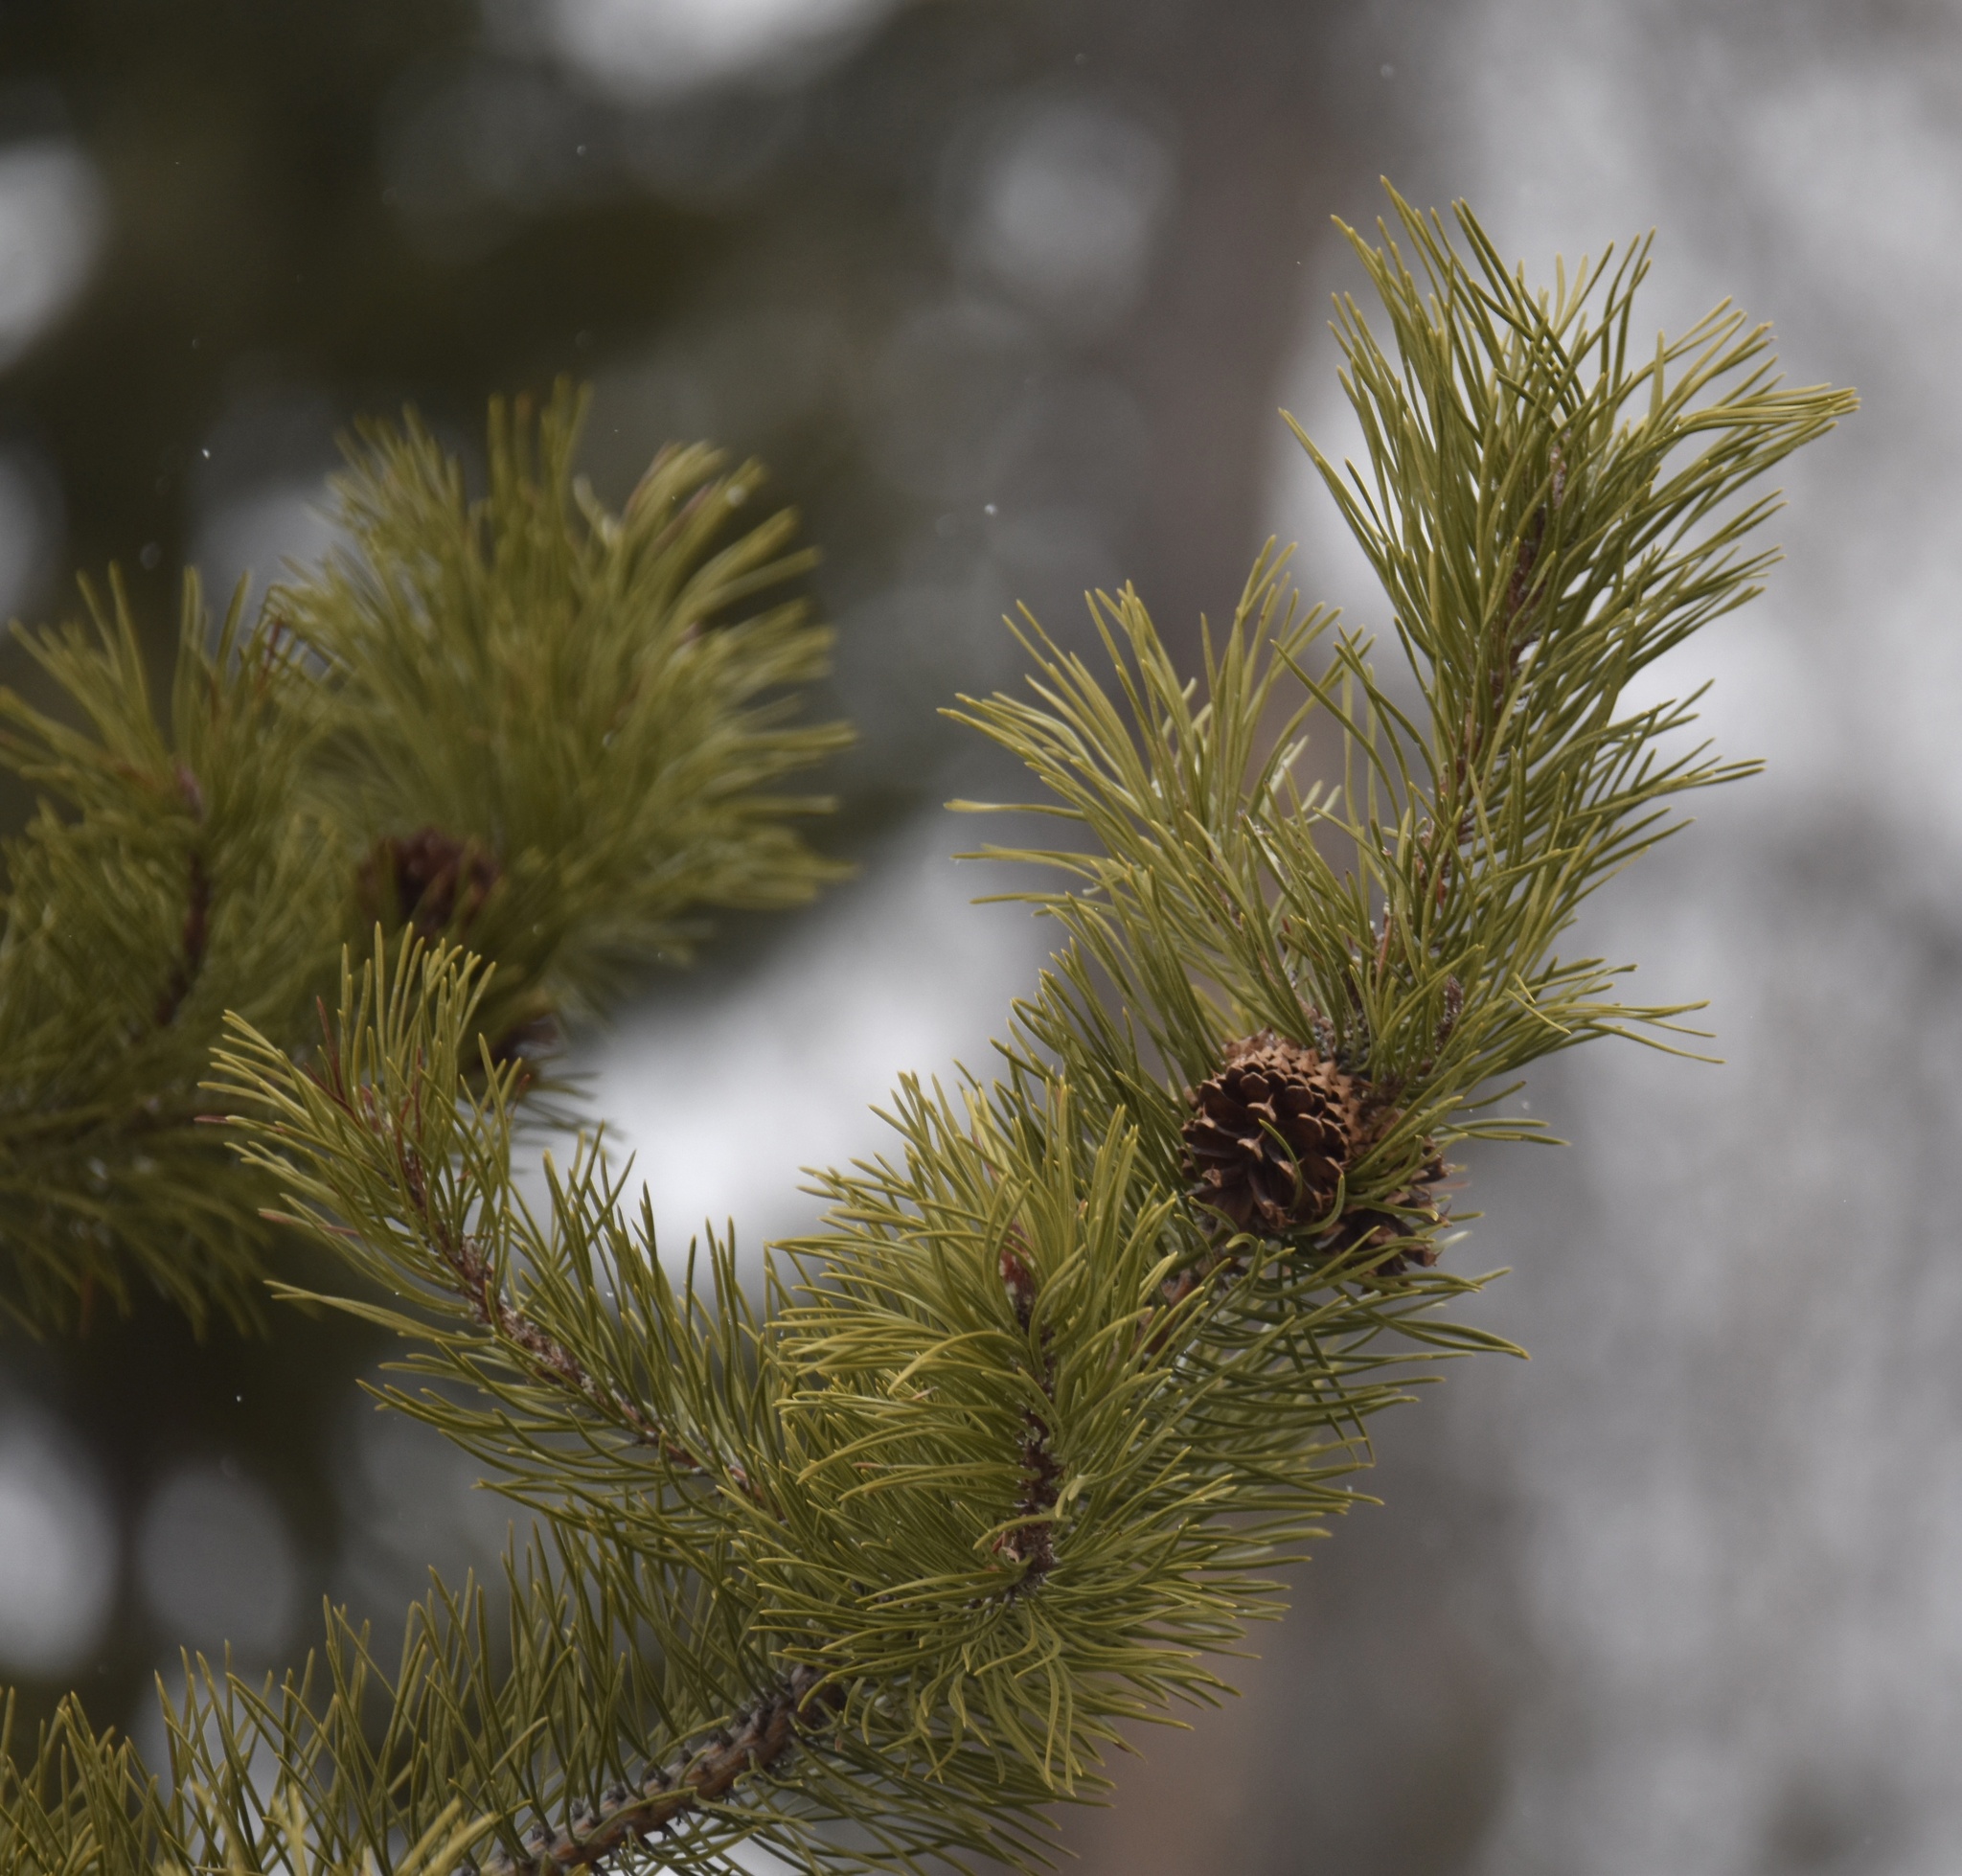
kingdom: Plantae
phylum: Tracheophyta
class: Pinopsida
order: Pinales
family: Pinaceae
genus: Pinus
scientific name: Pinus contorta
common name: Lodgepole pine
